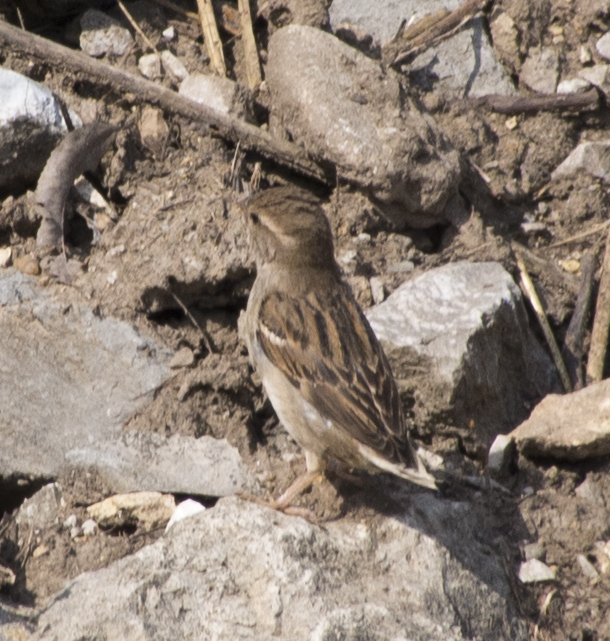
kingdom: Animalia
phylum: Chordata
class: Aves
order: Passeriformes
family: Passeridae
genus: Passer
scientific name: Passer domesticus
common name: House sparrow
